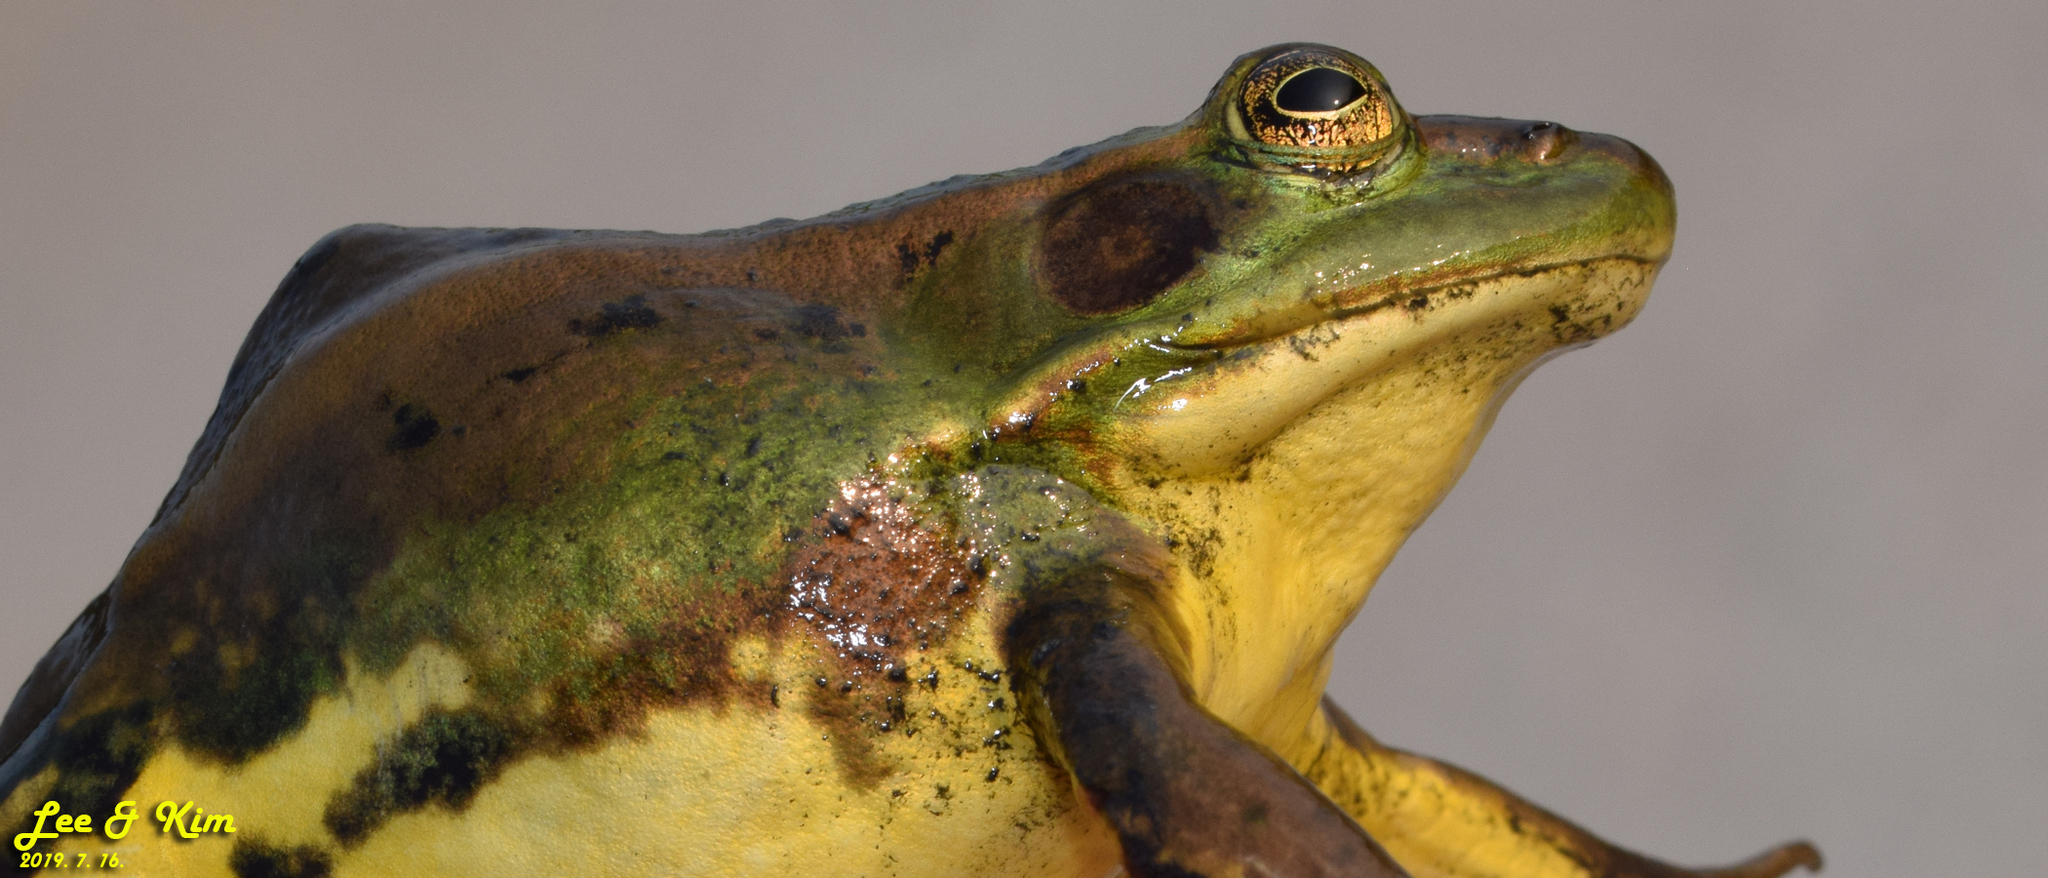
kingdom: Animalia
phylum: Chordata
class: Amphibia
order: Anura
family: Ranidae
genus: Pelophylax
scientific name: Pelophylax chosenicus
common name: Gold-spotted pond frog
